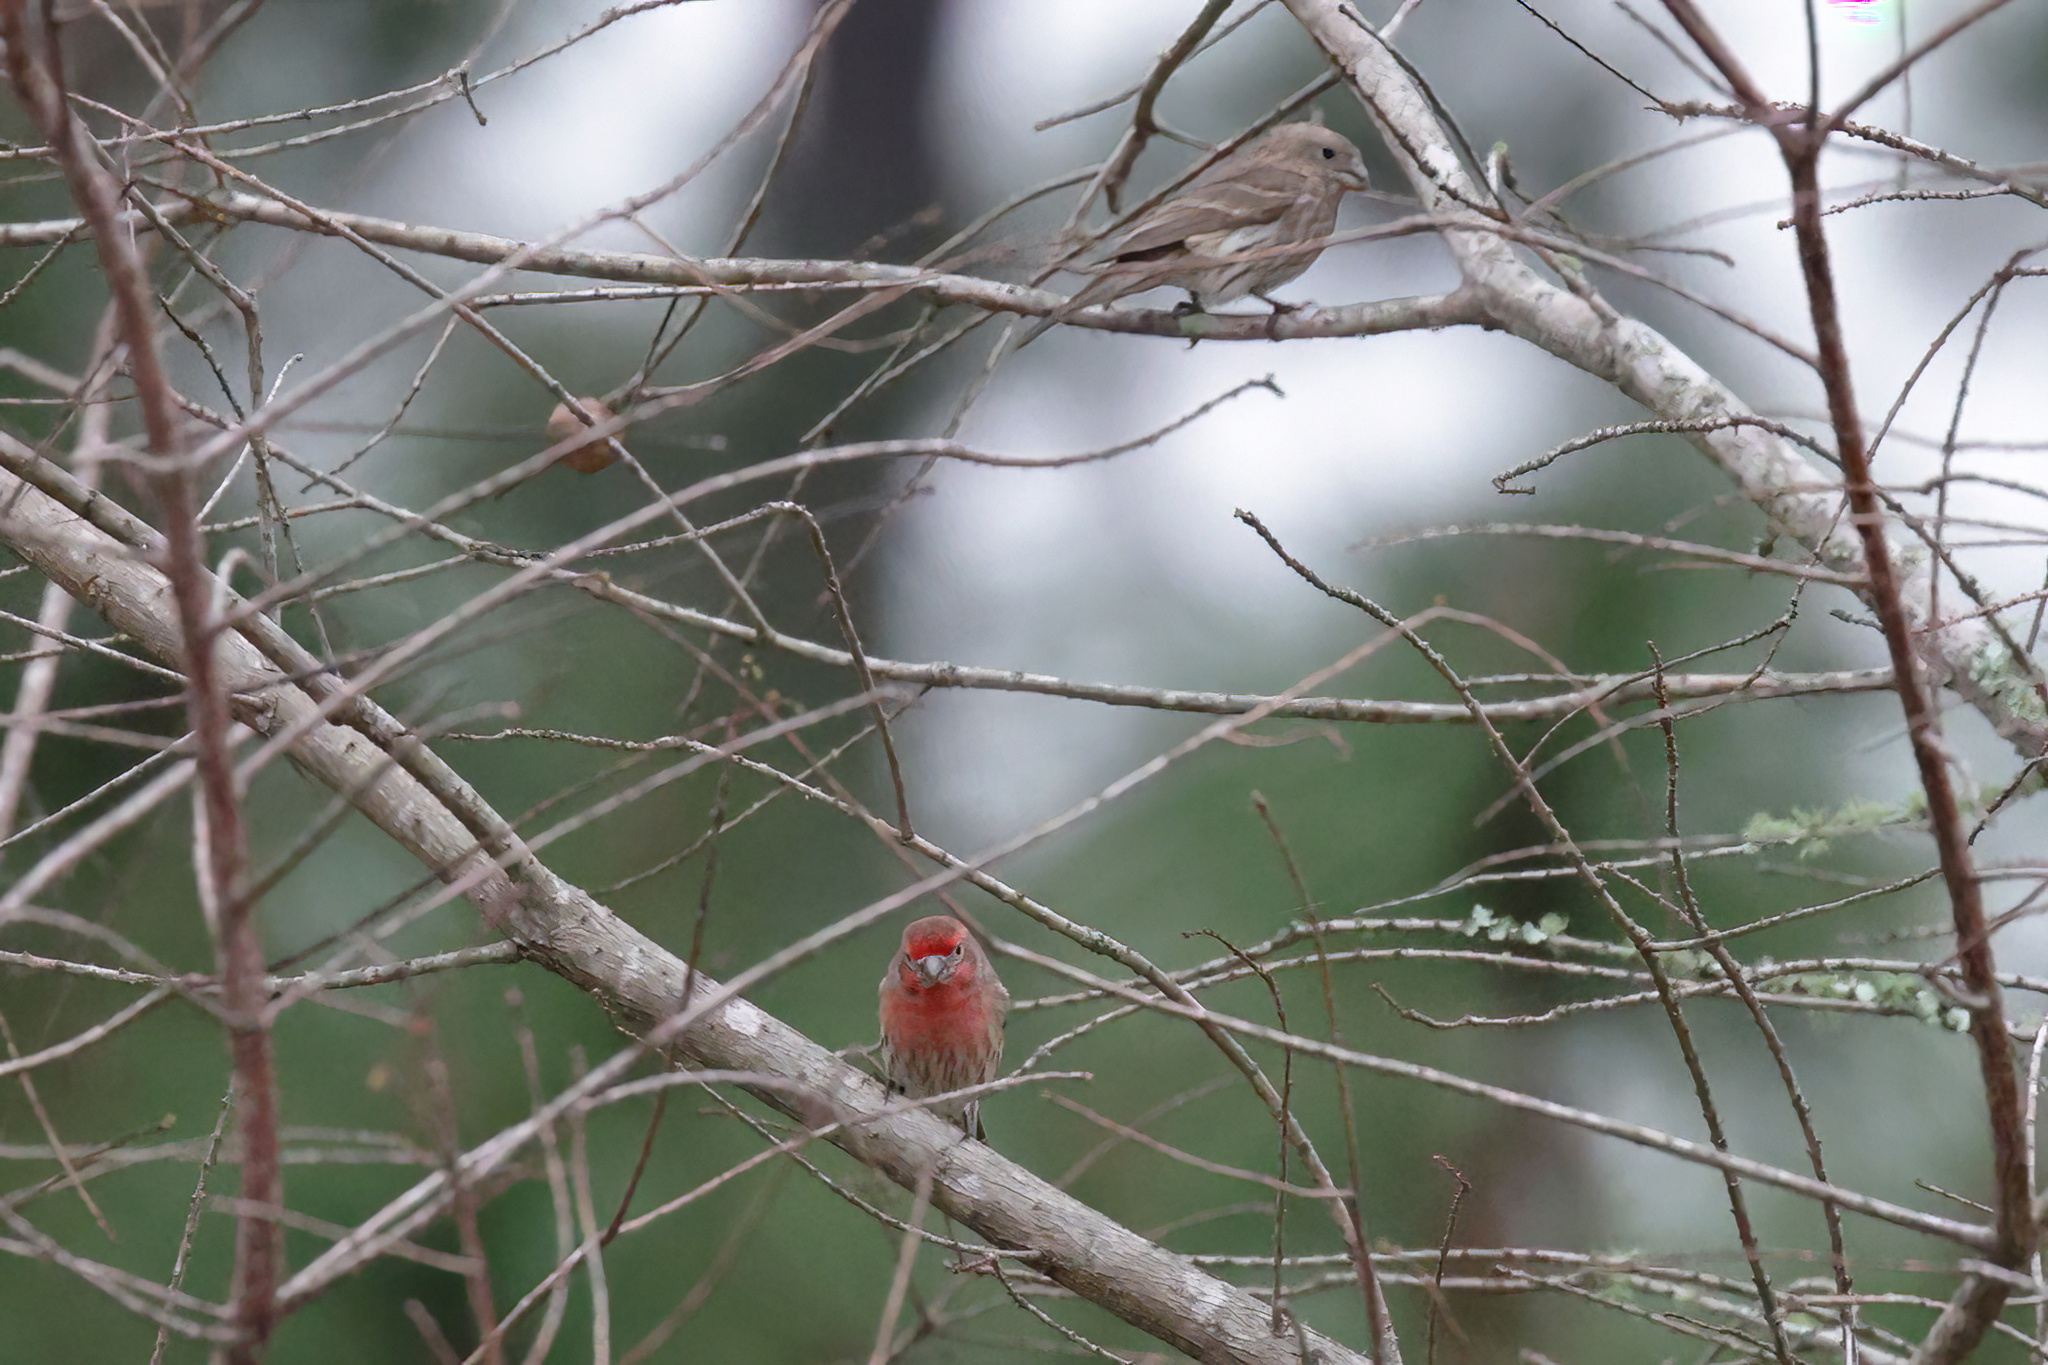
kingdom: Animalia
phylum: Chordata
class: Aves
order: Passeriformes
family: Fringillidae
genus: Haemorhous
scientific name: Haemorhous mexicanus
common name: House finch
